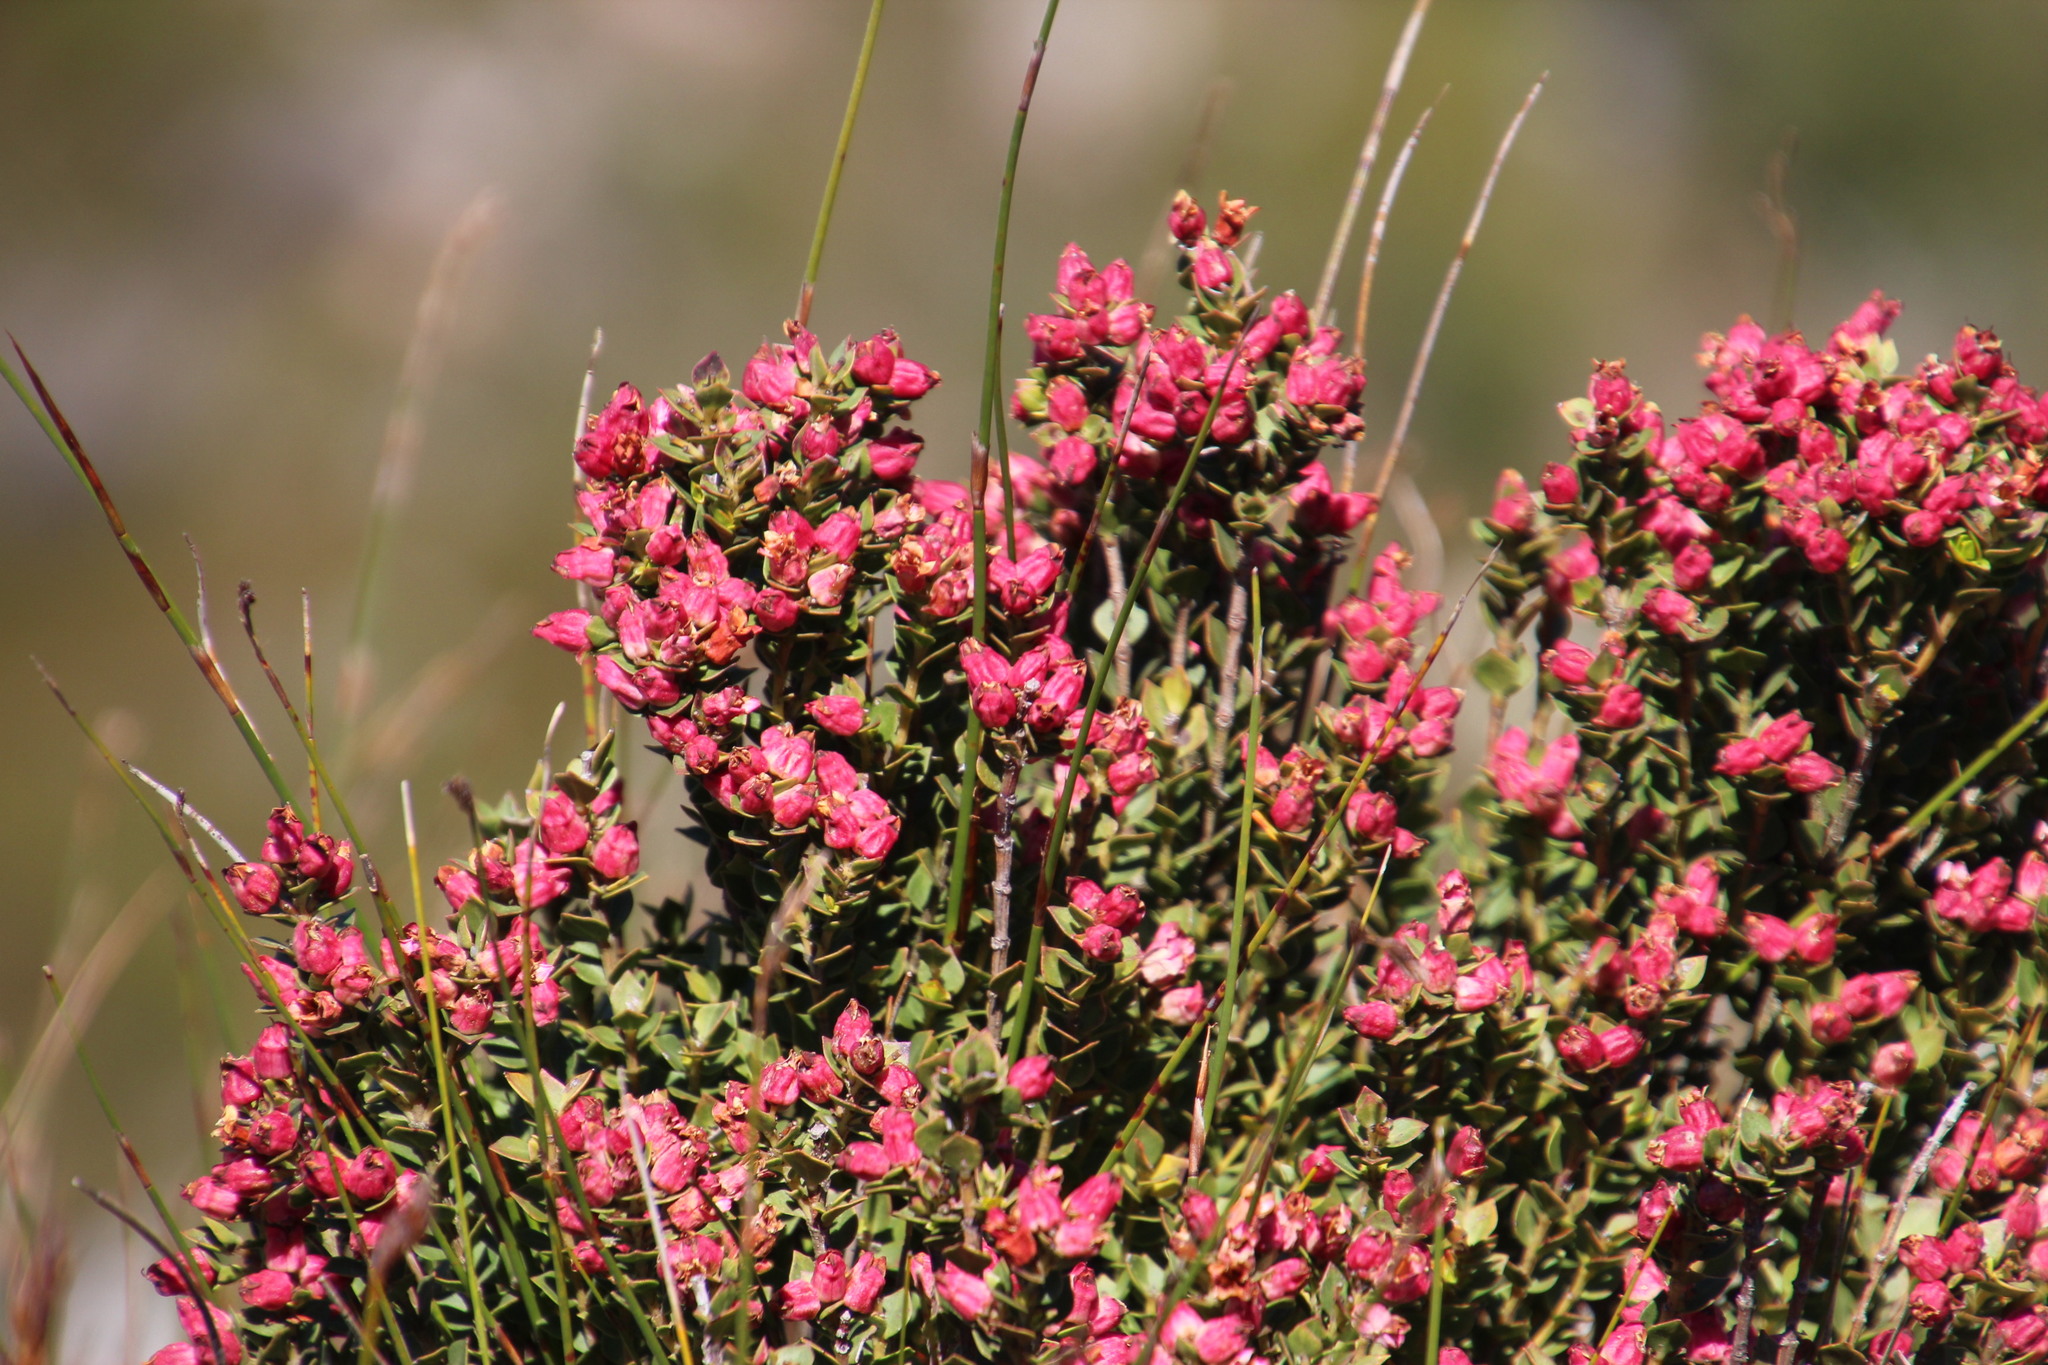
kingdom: Plantae
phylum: Tracheophyta
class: Magnoliopsida
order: Myrtales
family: Penaeaceae
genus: Brachysiphon
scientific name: Brachysiphon fucatus
